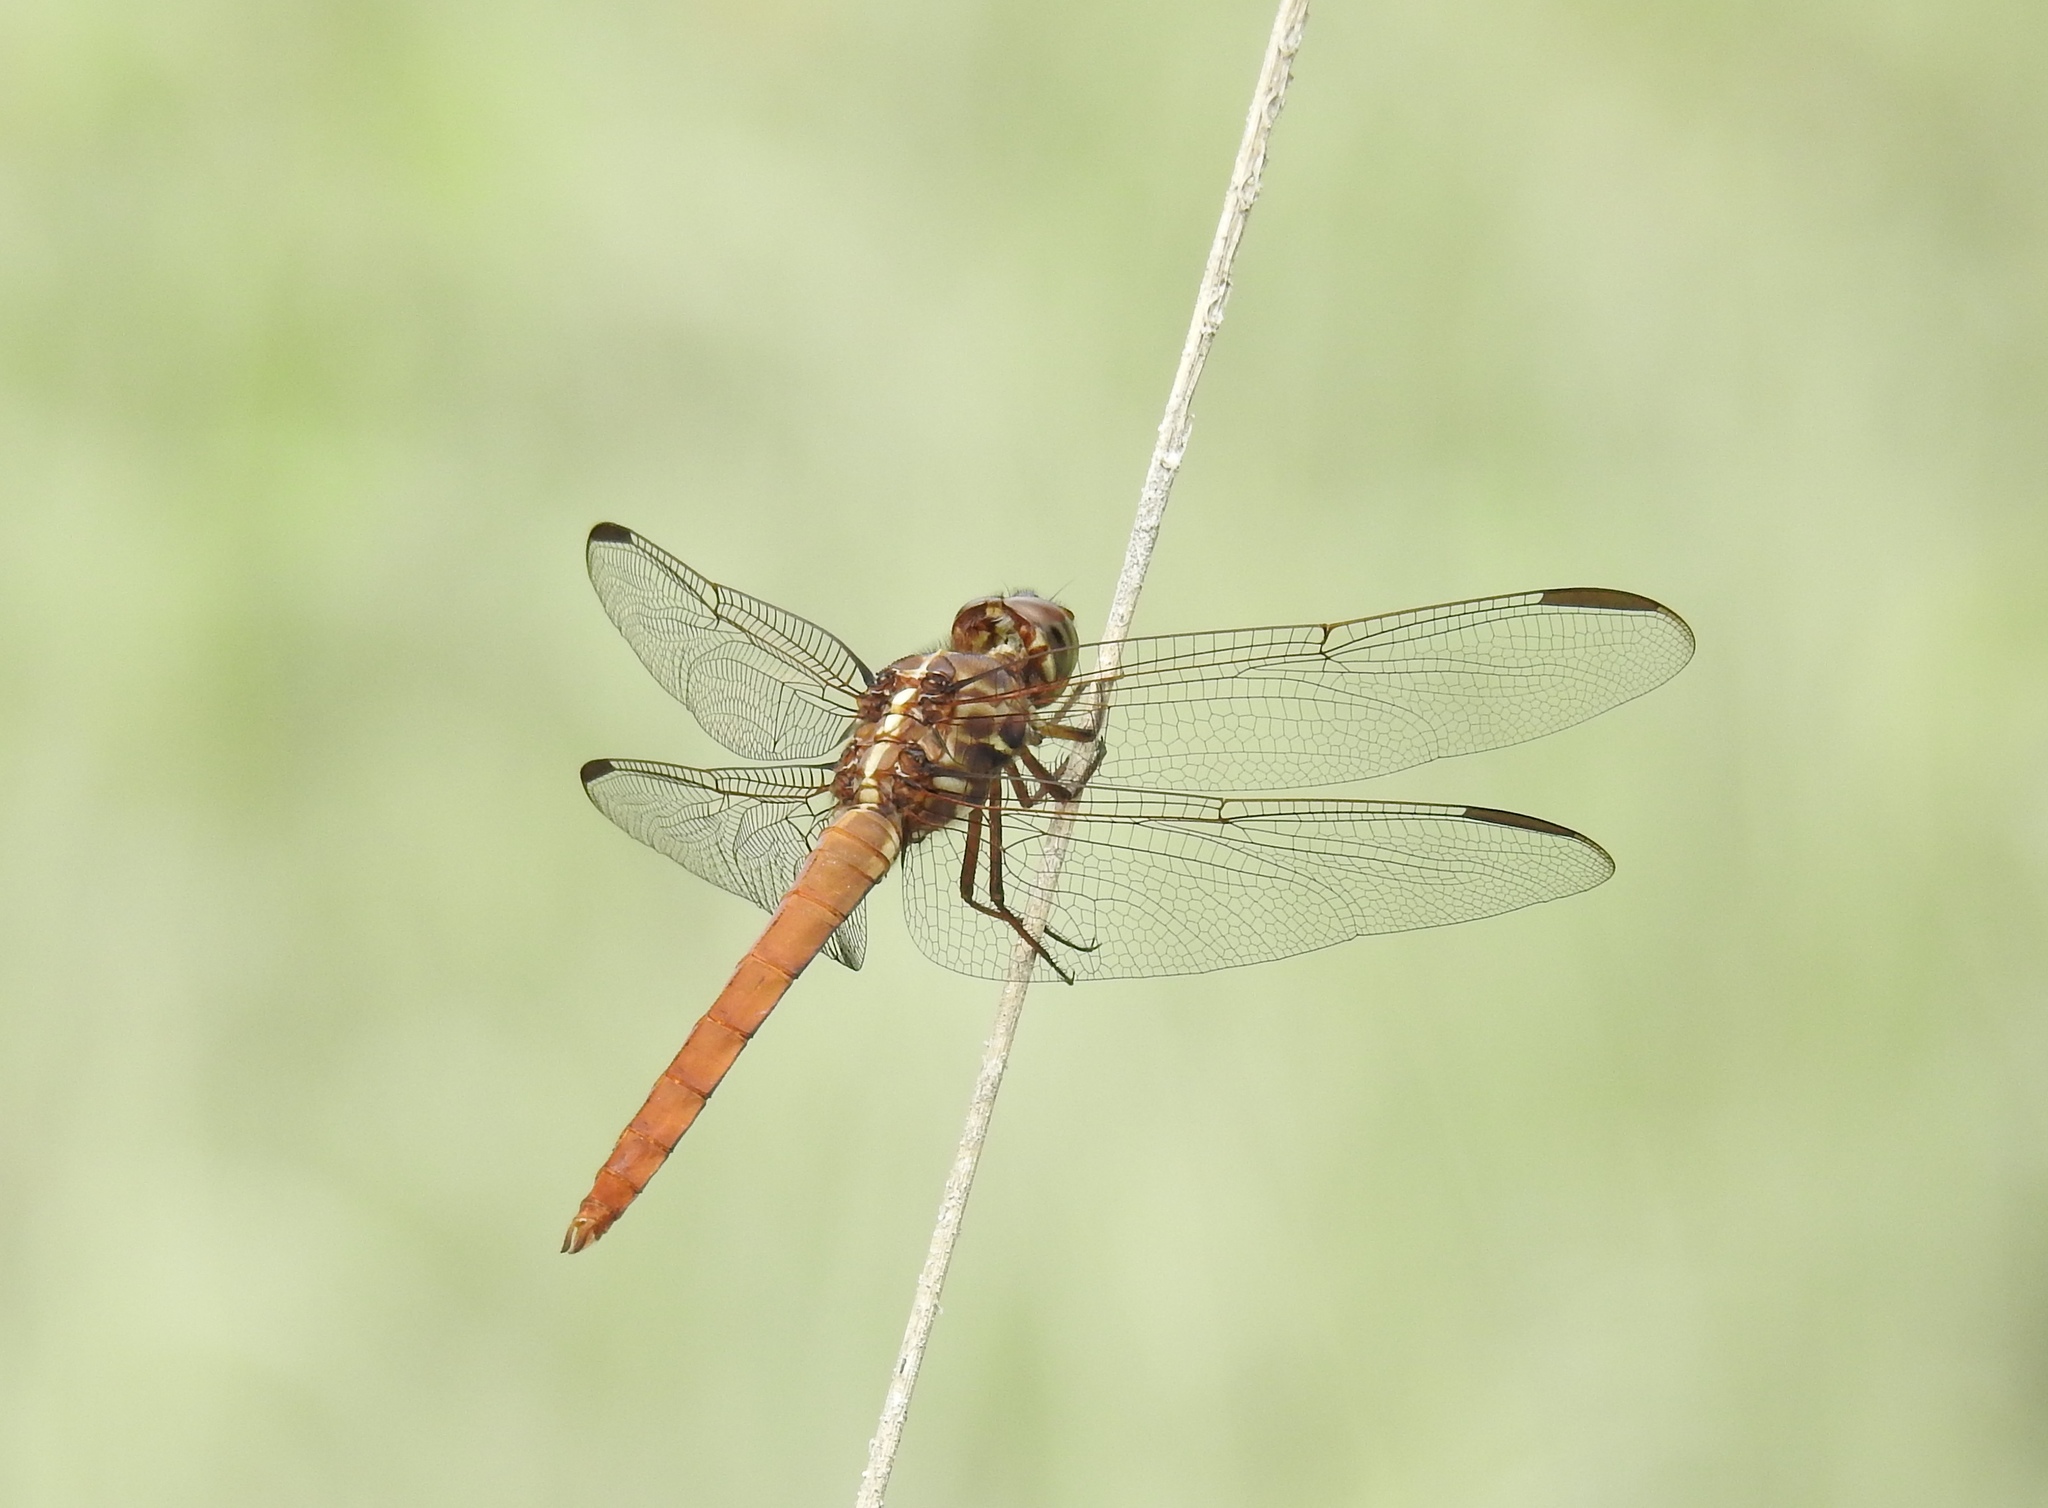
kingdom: Animalia
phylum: Arthropoda
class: Insecta
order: Odonata
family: Libellulidae
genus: Orthemis
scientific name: Orthemis ferruginea
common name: Roseate skimmer
